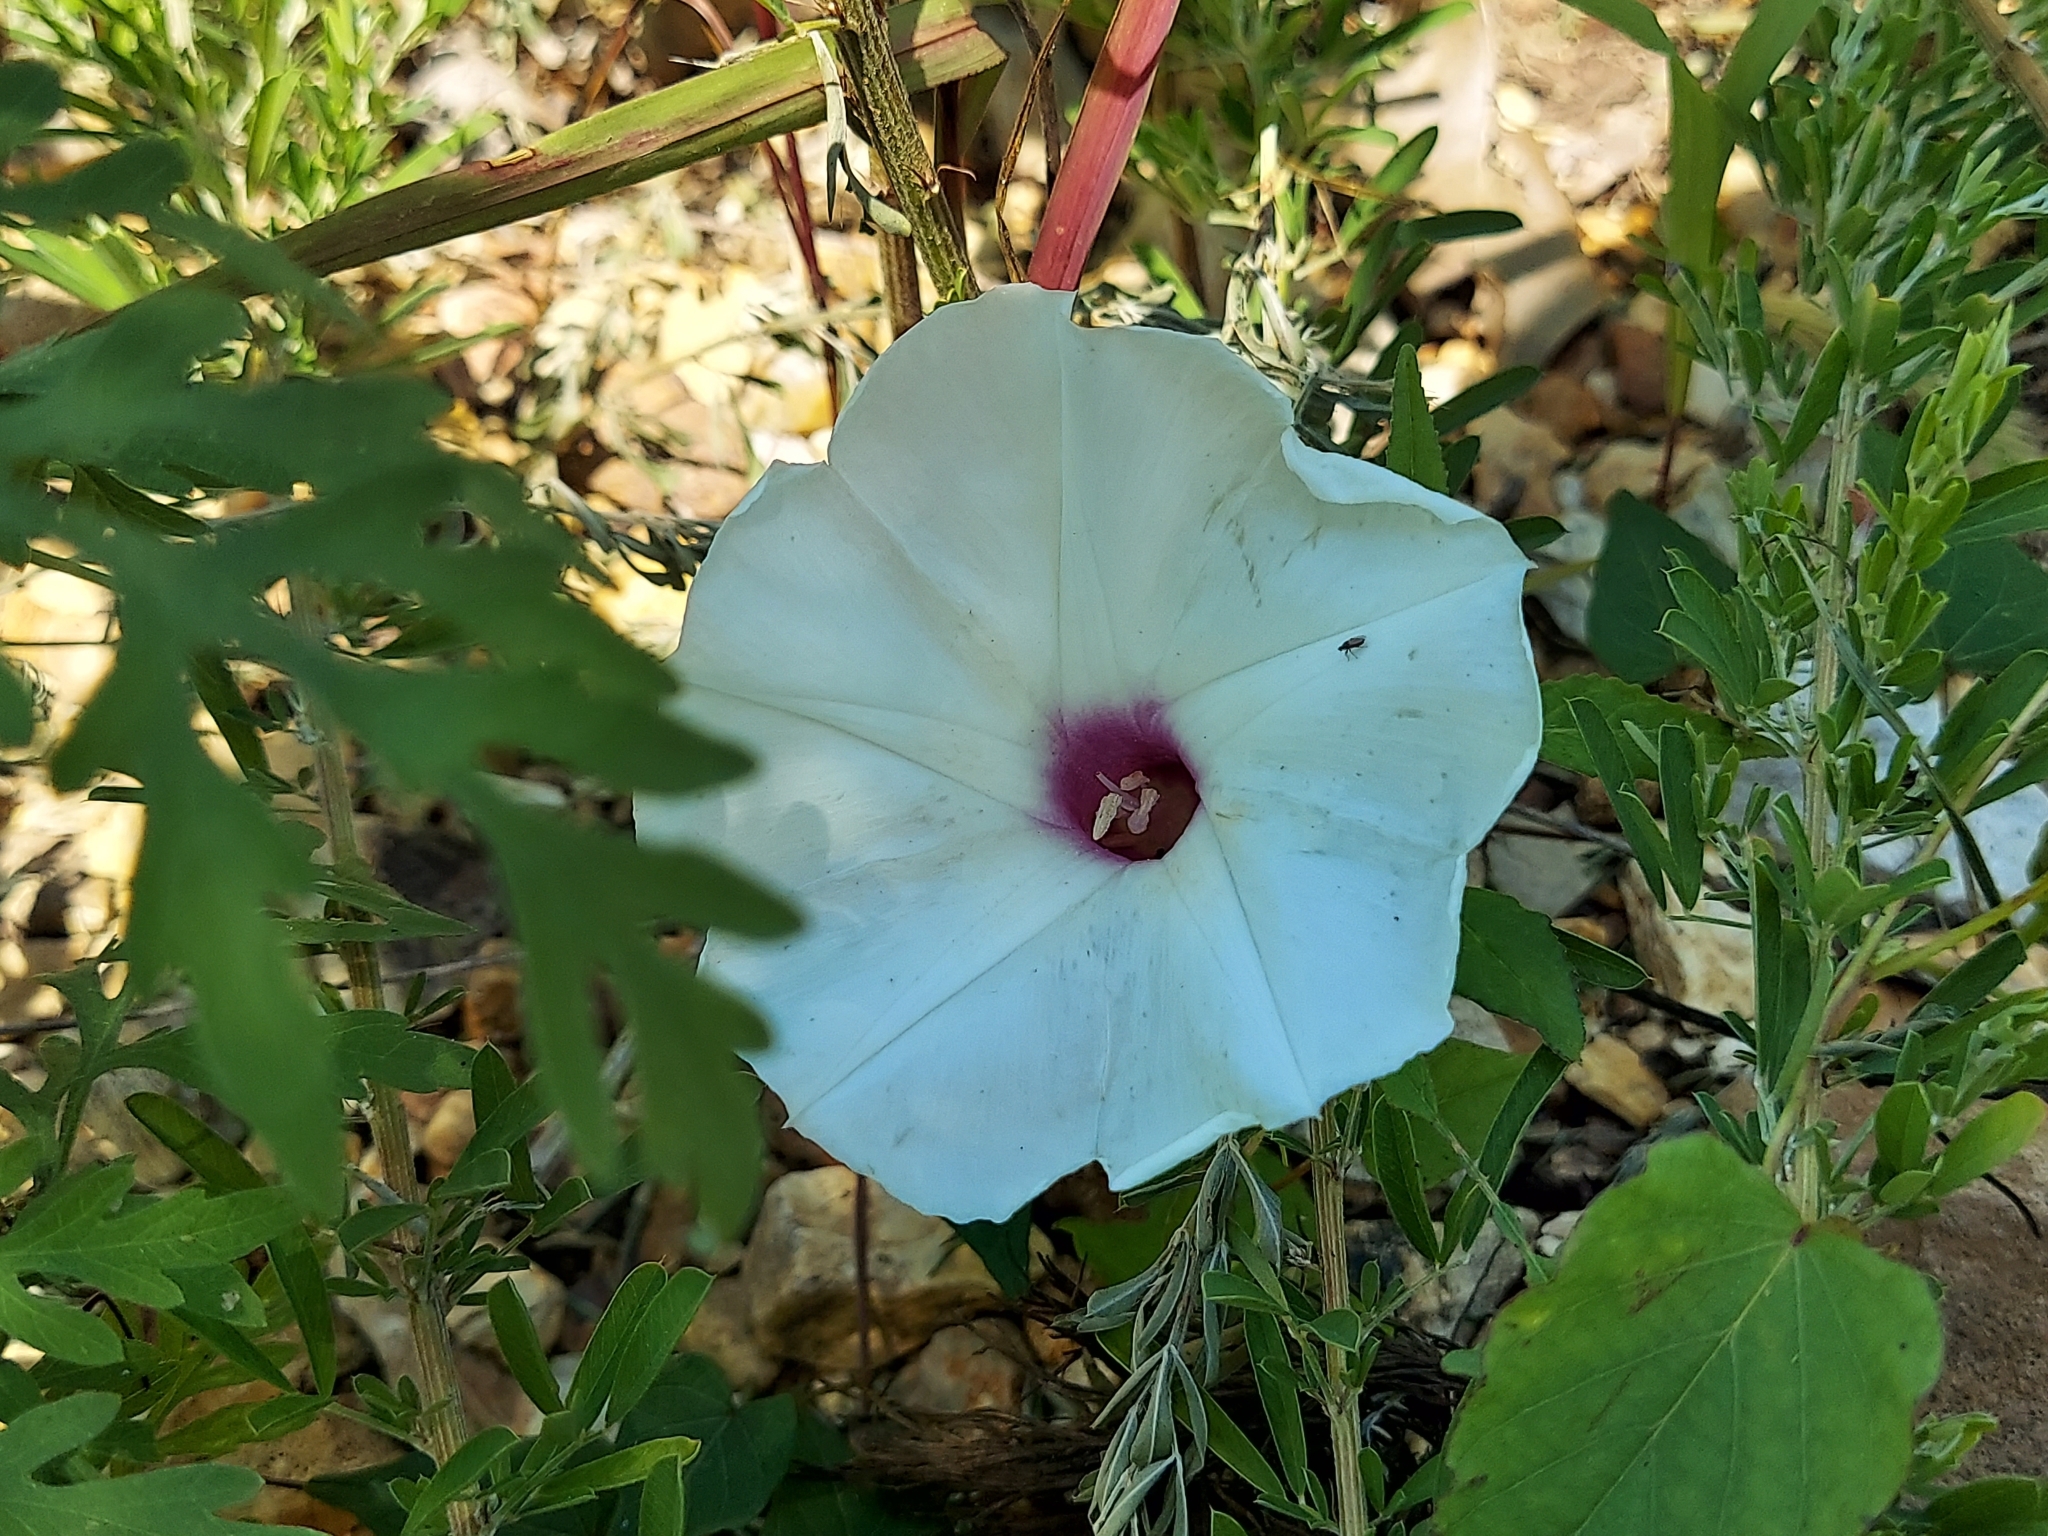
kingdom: Plantae
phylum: Tracheophyta
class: Magnoliopsida
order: Solanales
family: Convolvulaceae
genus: Ipomoea
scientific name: Ipomoea pandurata
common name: Man-of-the-earth
